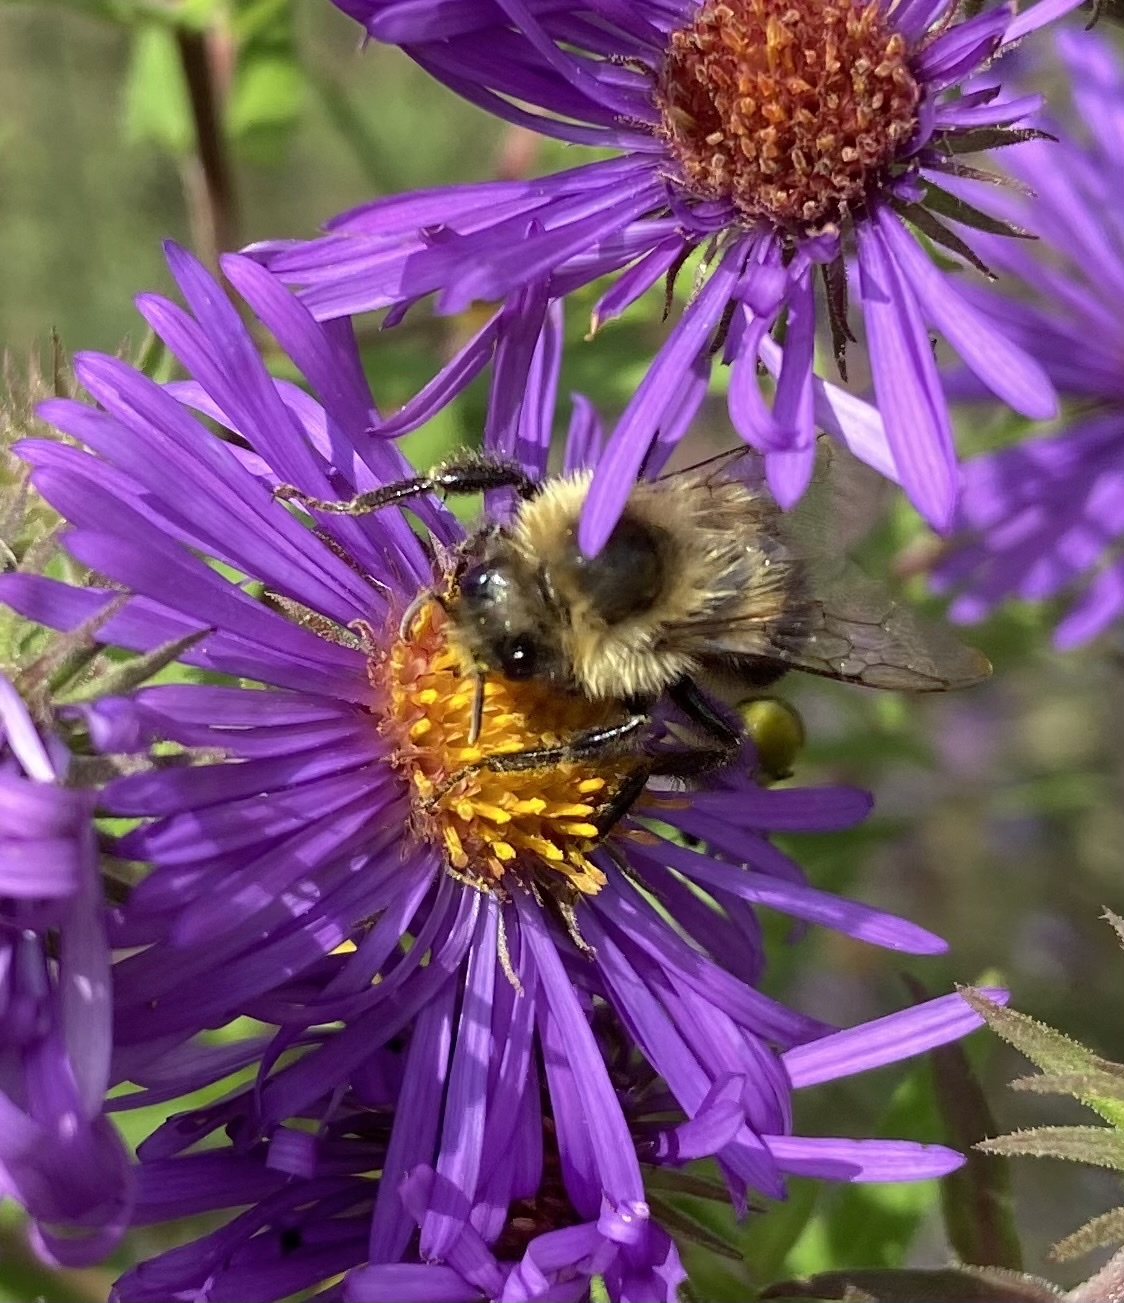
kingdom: Animalia
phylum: Arthropoda
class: Insecta
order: Hymenoptera
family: Apidae
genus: Bombus
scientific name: Bombus impatiens
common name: Common eastern bumble bee
